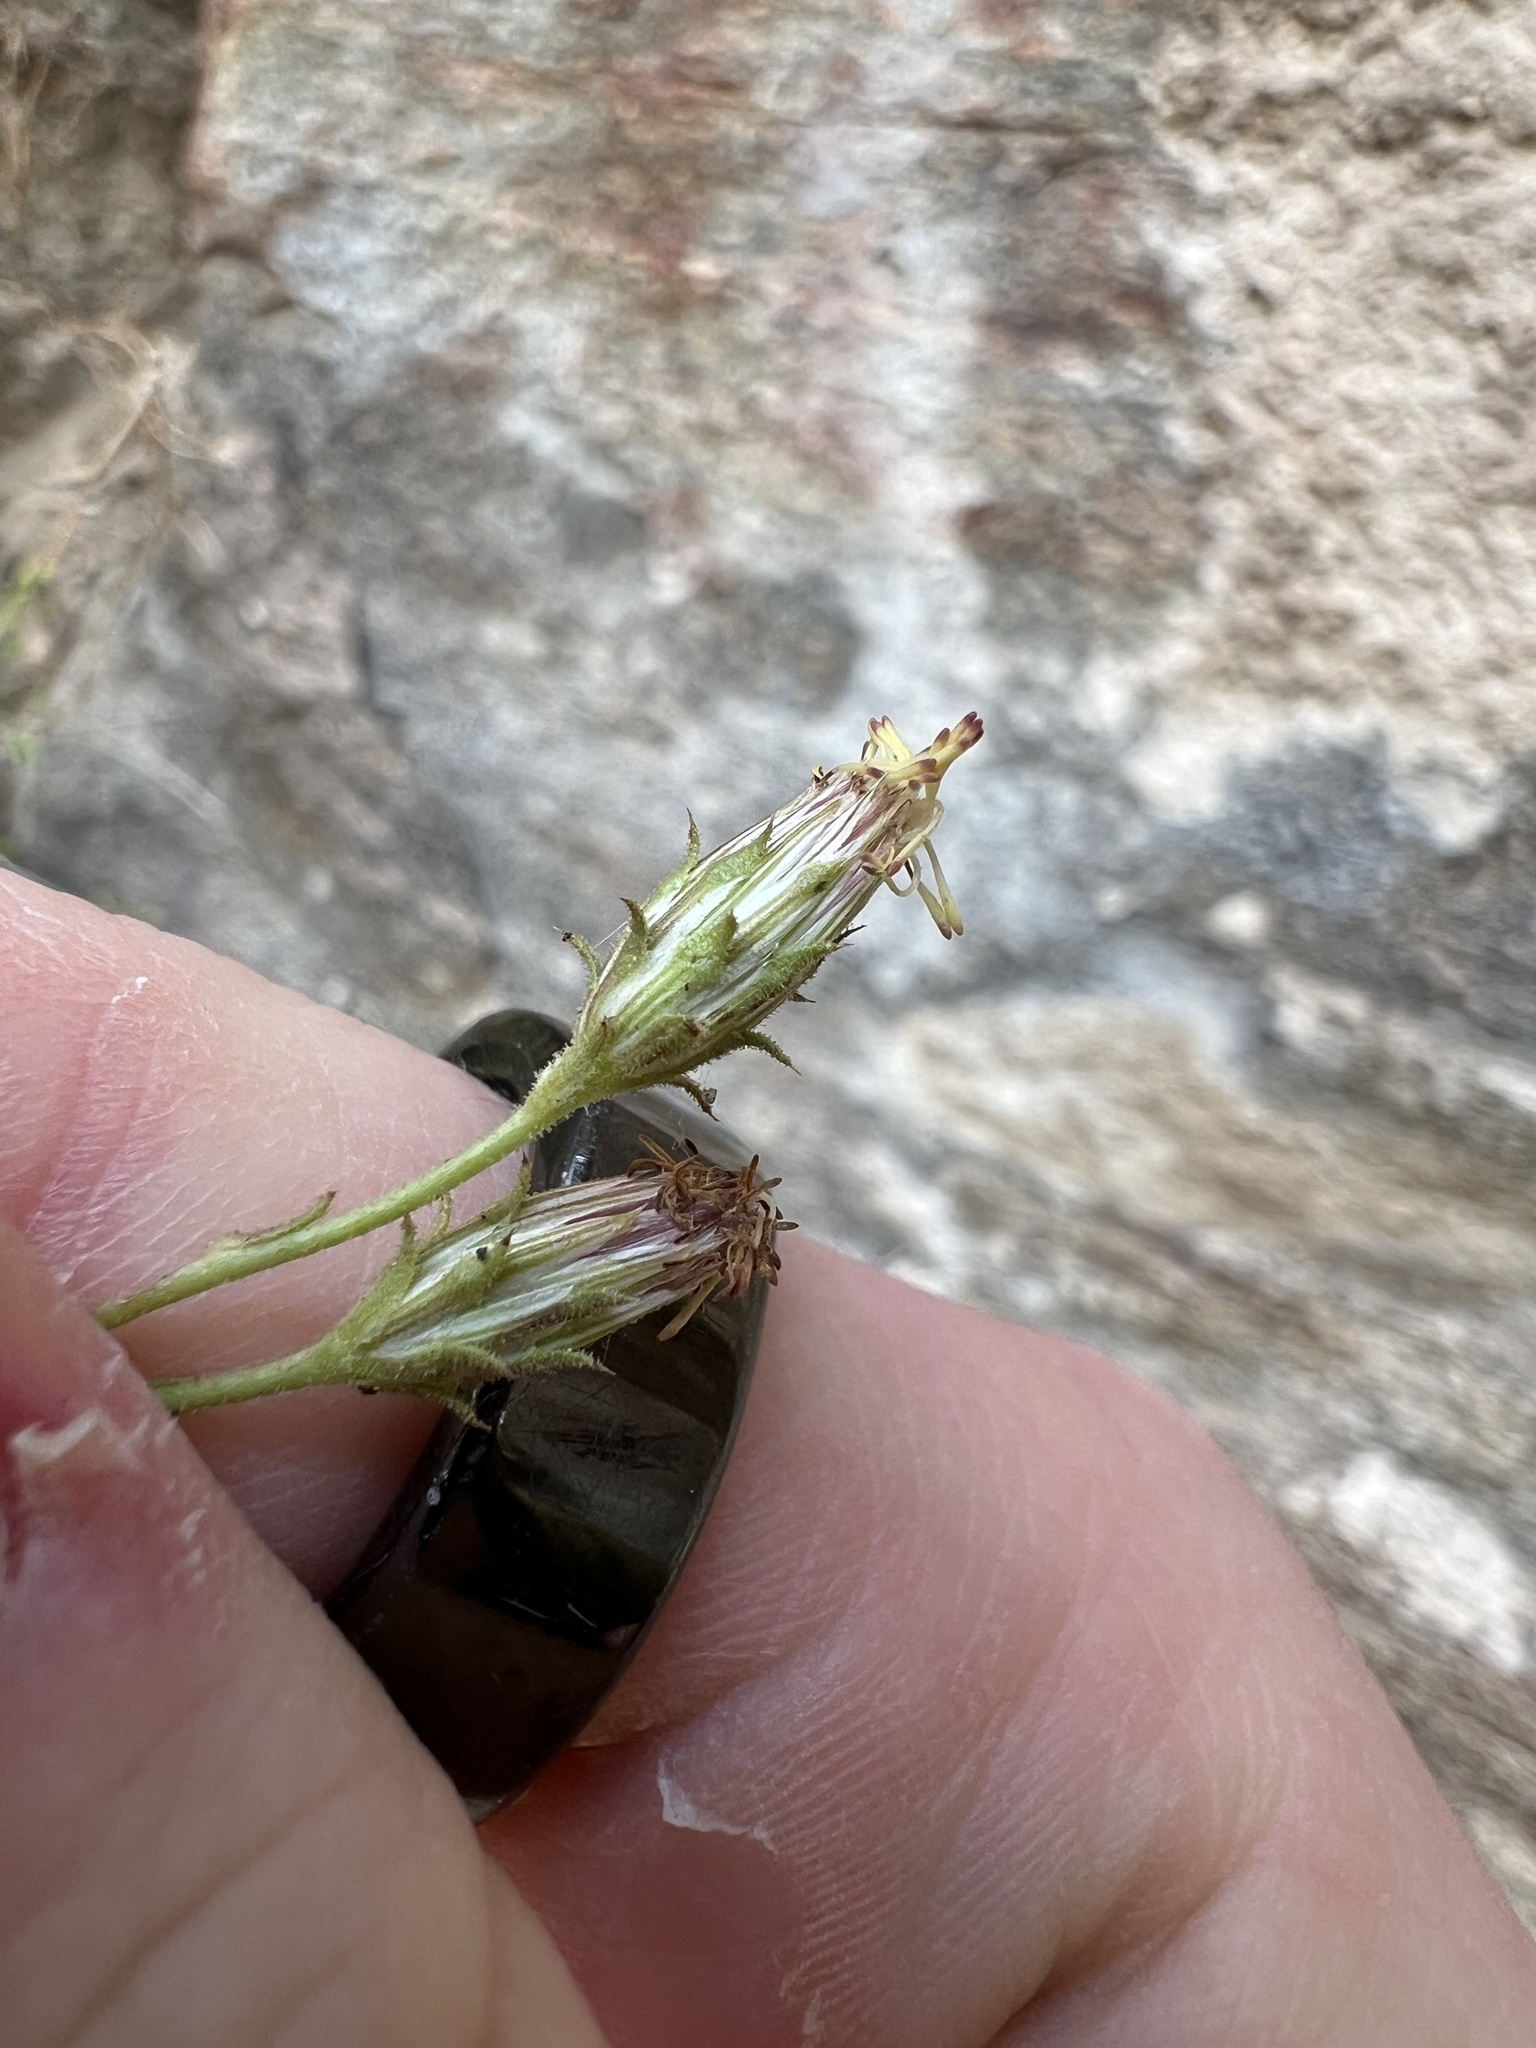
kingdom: Plantae
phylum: Tracheophyta
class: Magnoliopsida
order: Asterales
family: Asteraceae
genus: Pleurocoronis
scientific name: Pleurocoronis pluriseta
